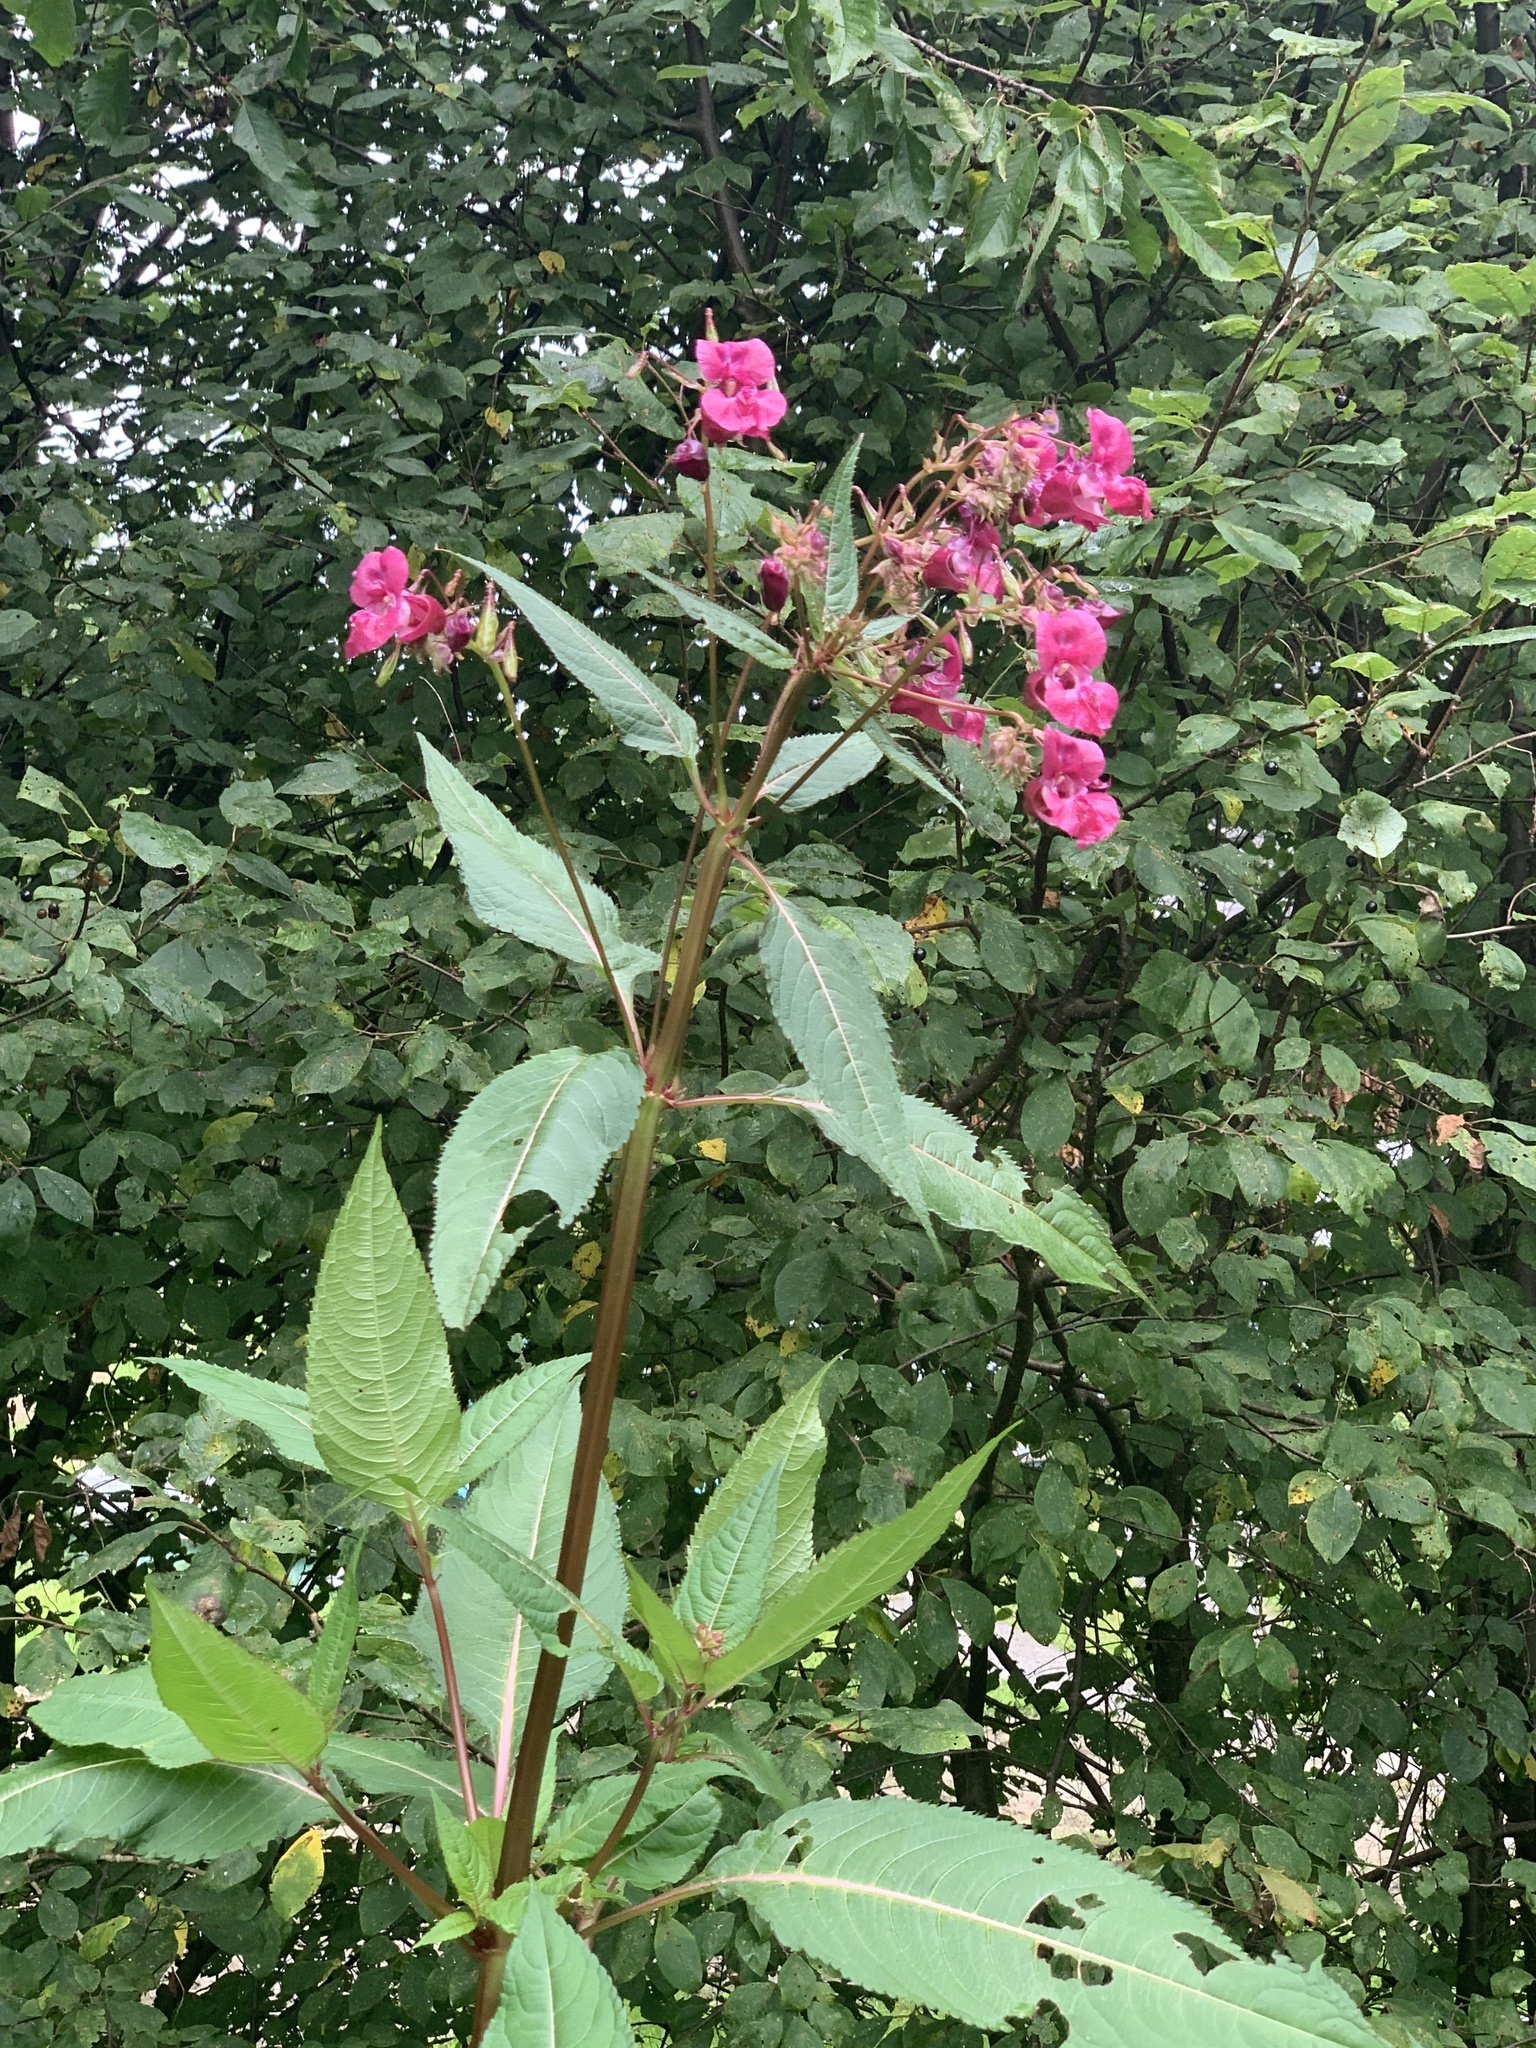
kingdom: Plantae
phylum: Tracheophyta
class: Magnoliopsida
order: Ericales
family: Balsaminaceae
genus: Impatiens
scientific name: Impatiens glandulifera
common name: Himalayan balsam
